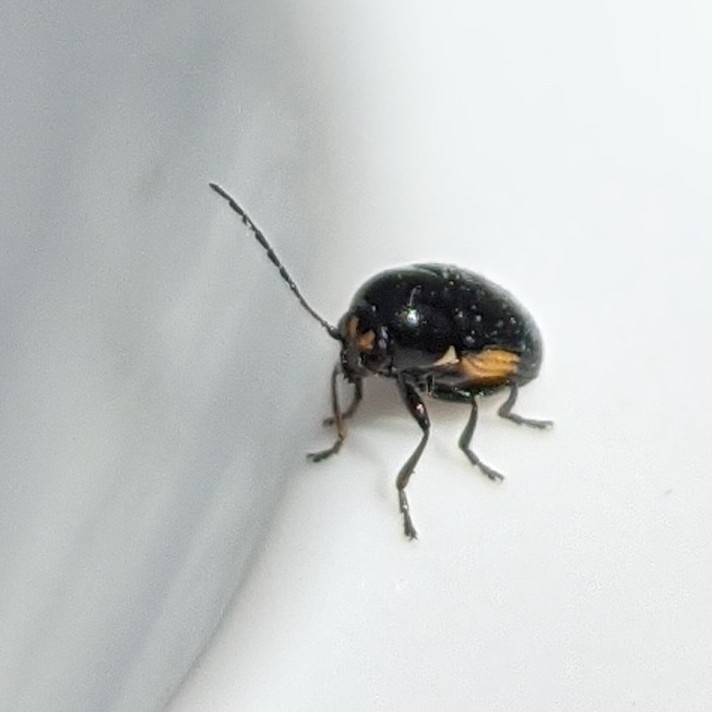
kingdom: Animalia
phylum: Arthropoda
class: Insecta
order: Coleoptera
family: Chrysomelidae
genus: Cryptocephalus
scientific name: Cryptocephalus moraei
